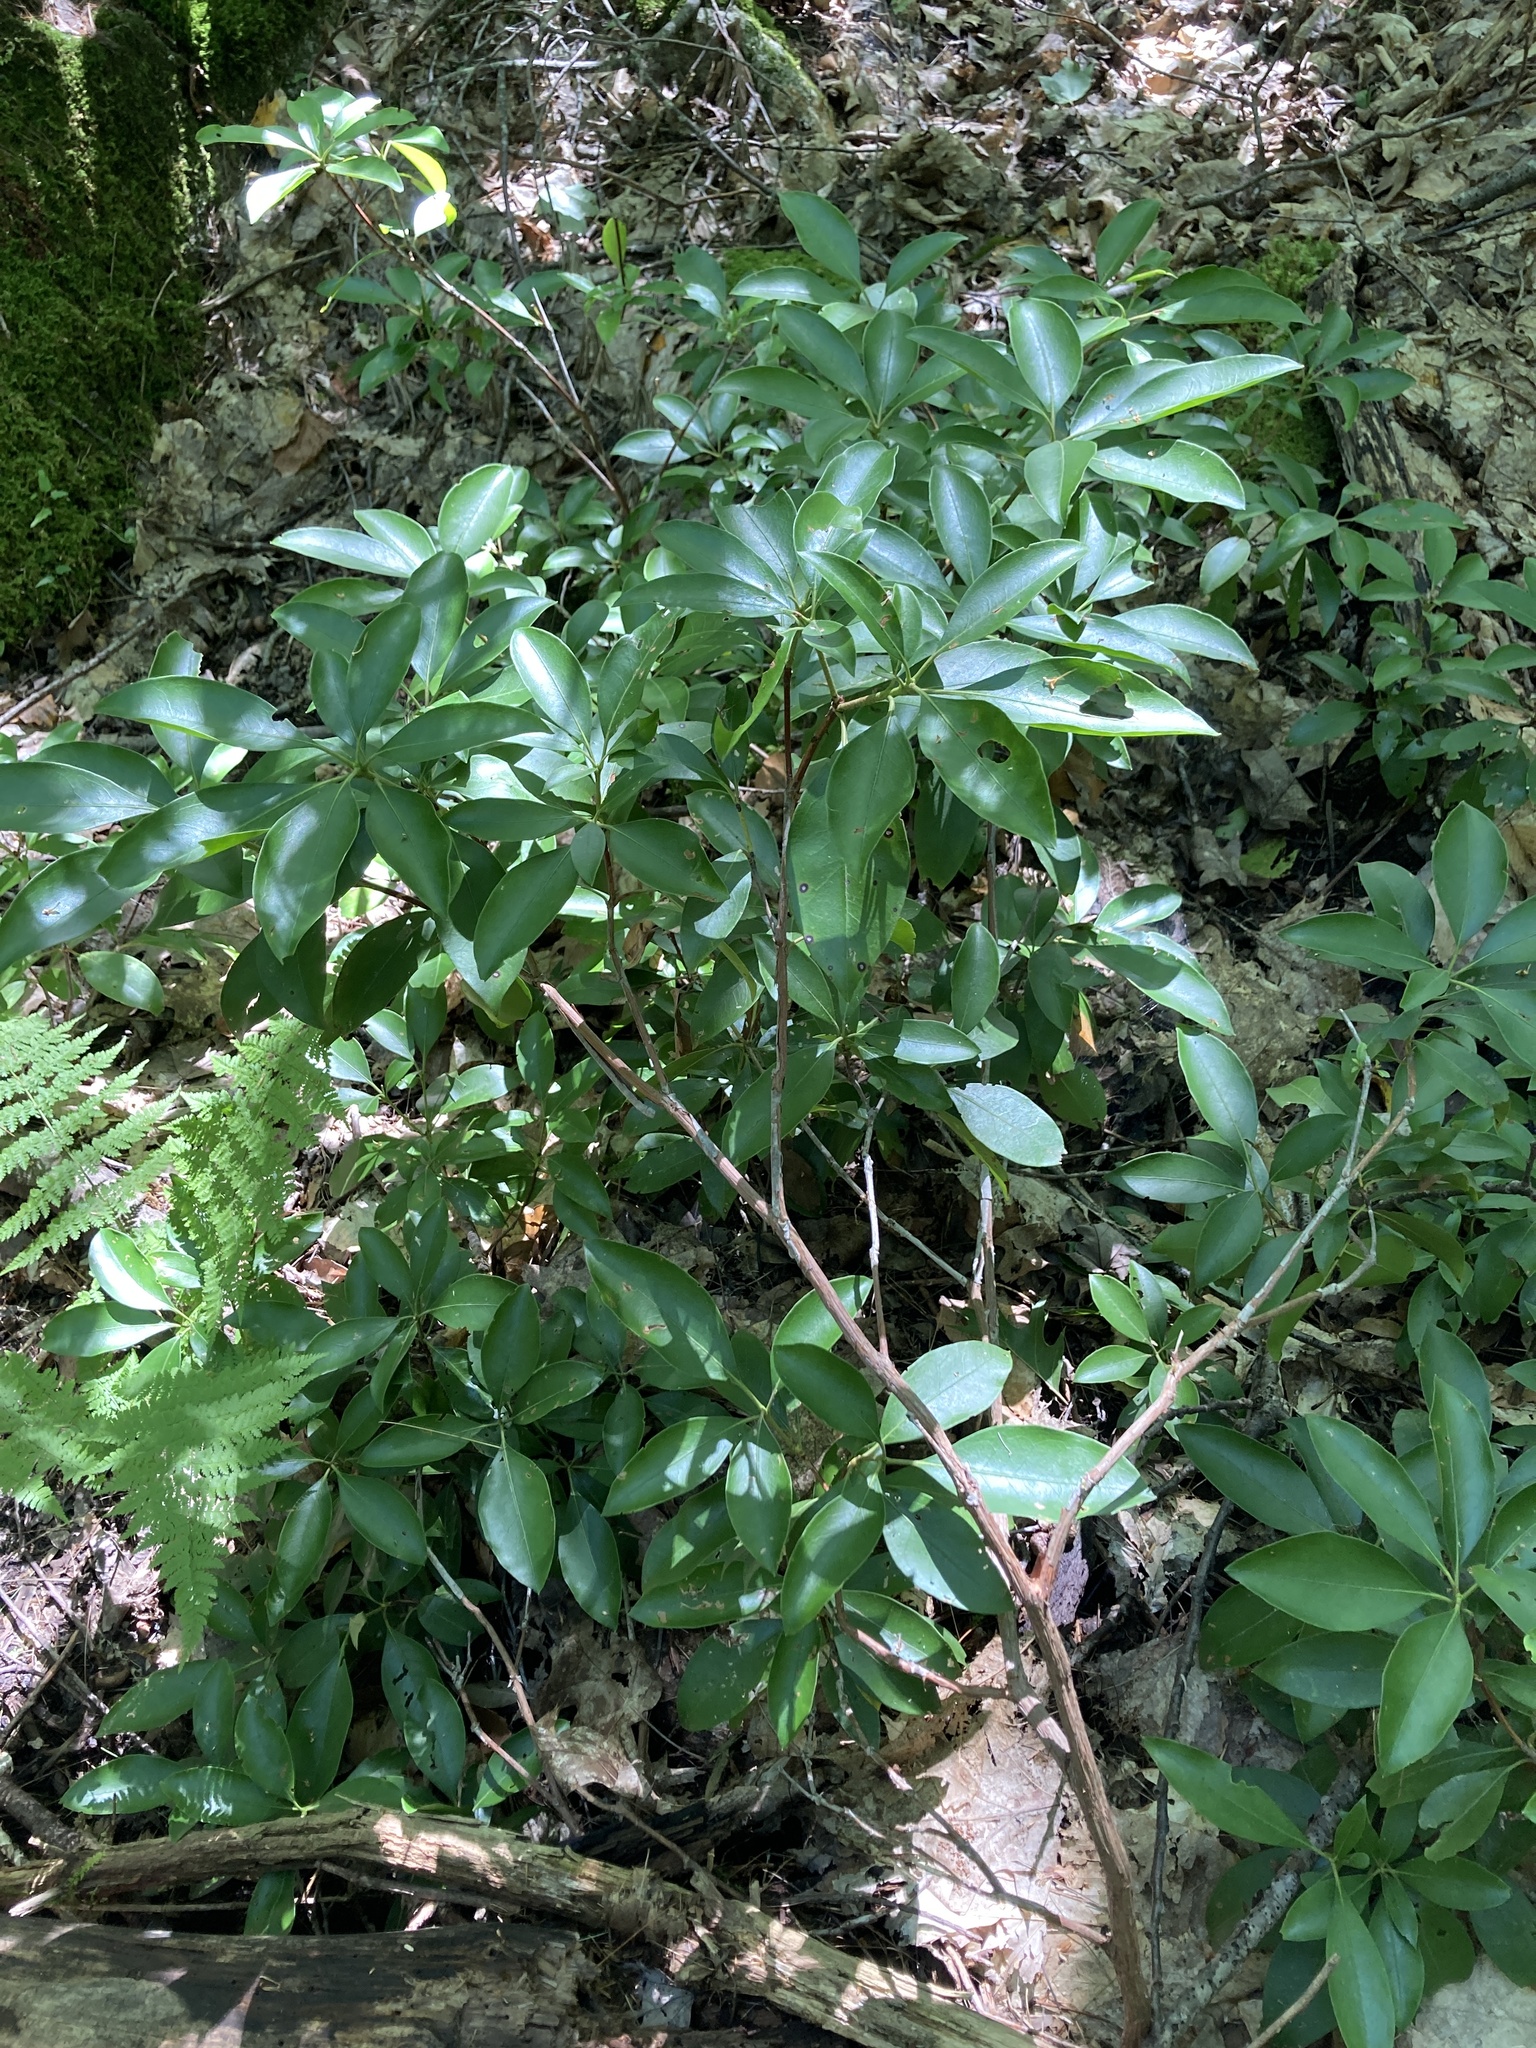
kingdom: Plantae
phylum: Tracheophyta
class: Magnoliopsida
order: Ericales
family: Ericaceae
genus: Kalmia
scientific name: Kalmia latifolia
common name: Mountain-laurel
